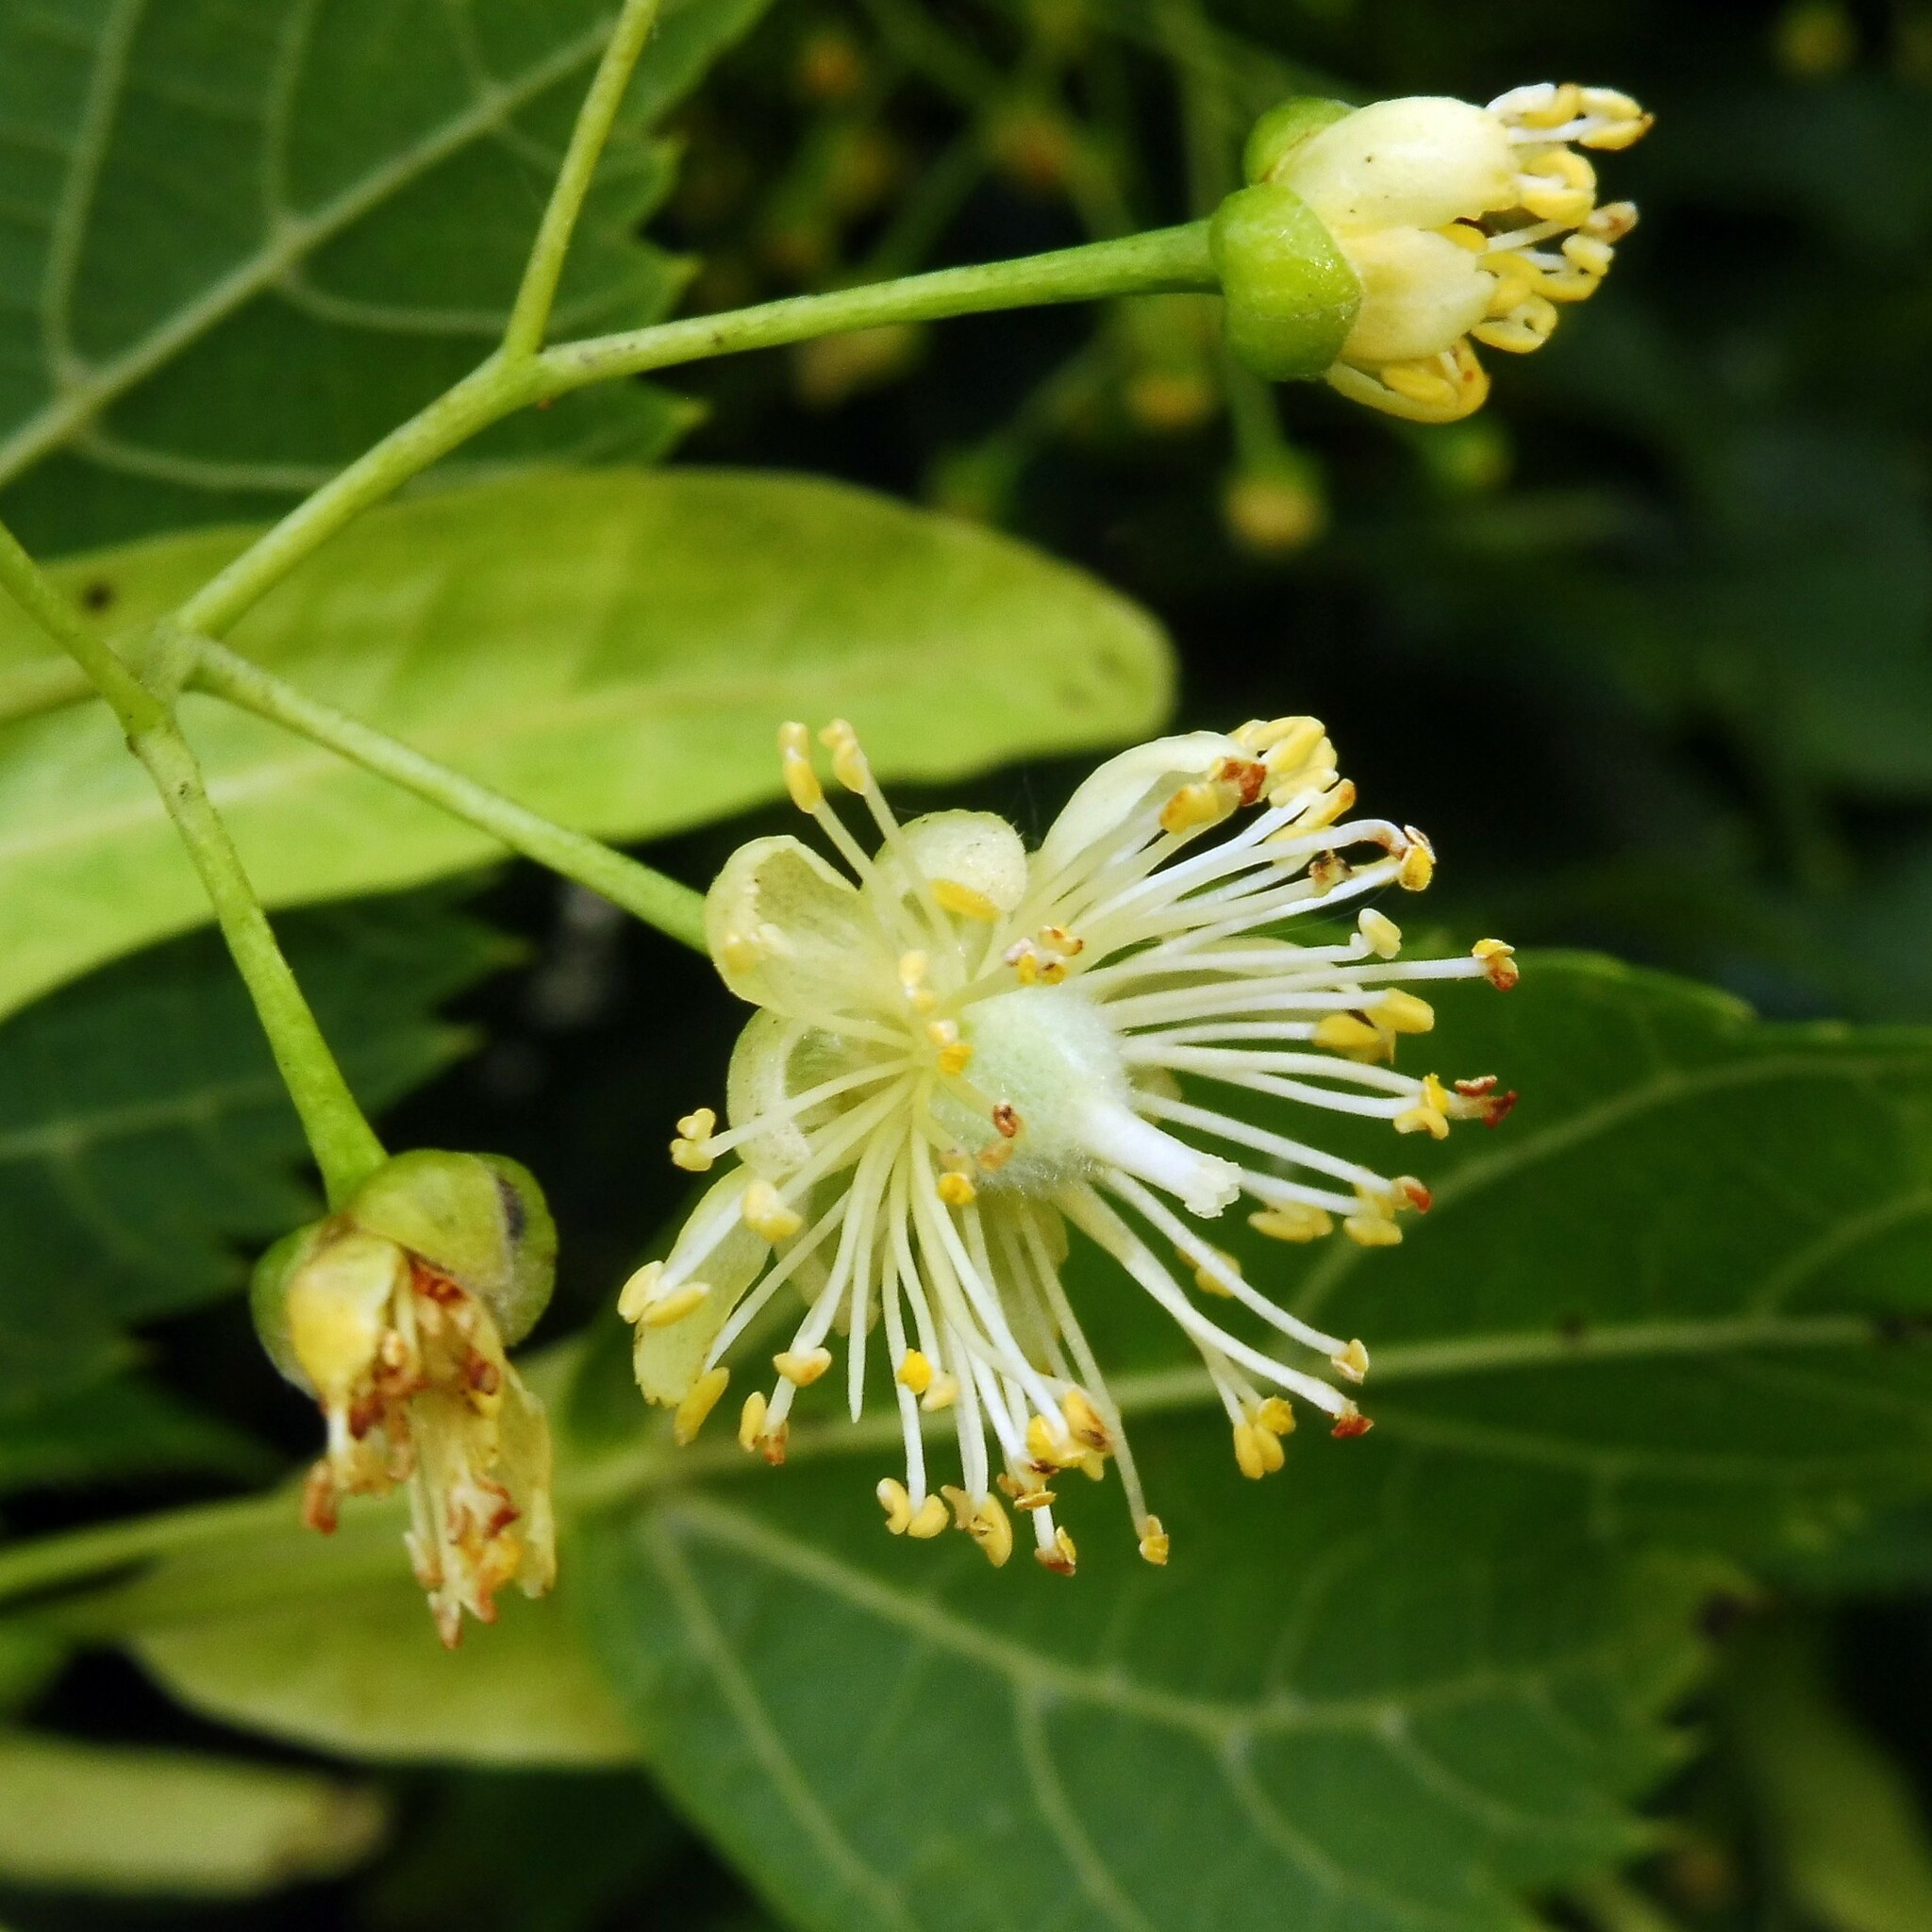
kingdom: Plantae
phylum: Tracheophyta
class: Magnoliopsida
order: Malvales
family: Malvaceae
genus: Tilia
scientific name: Tilia platyphyllos
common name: Large-leaved lime
